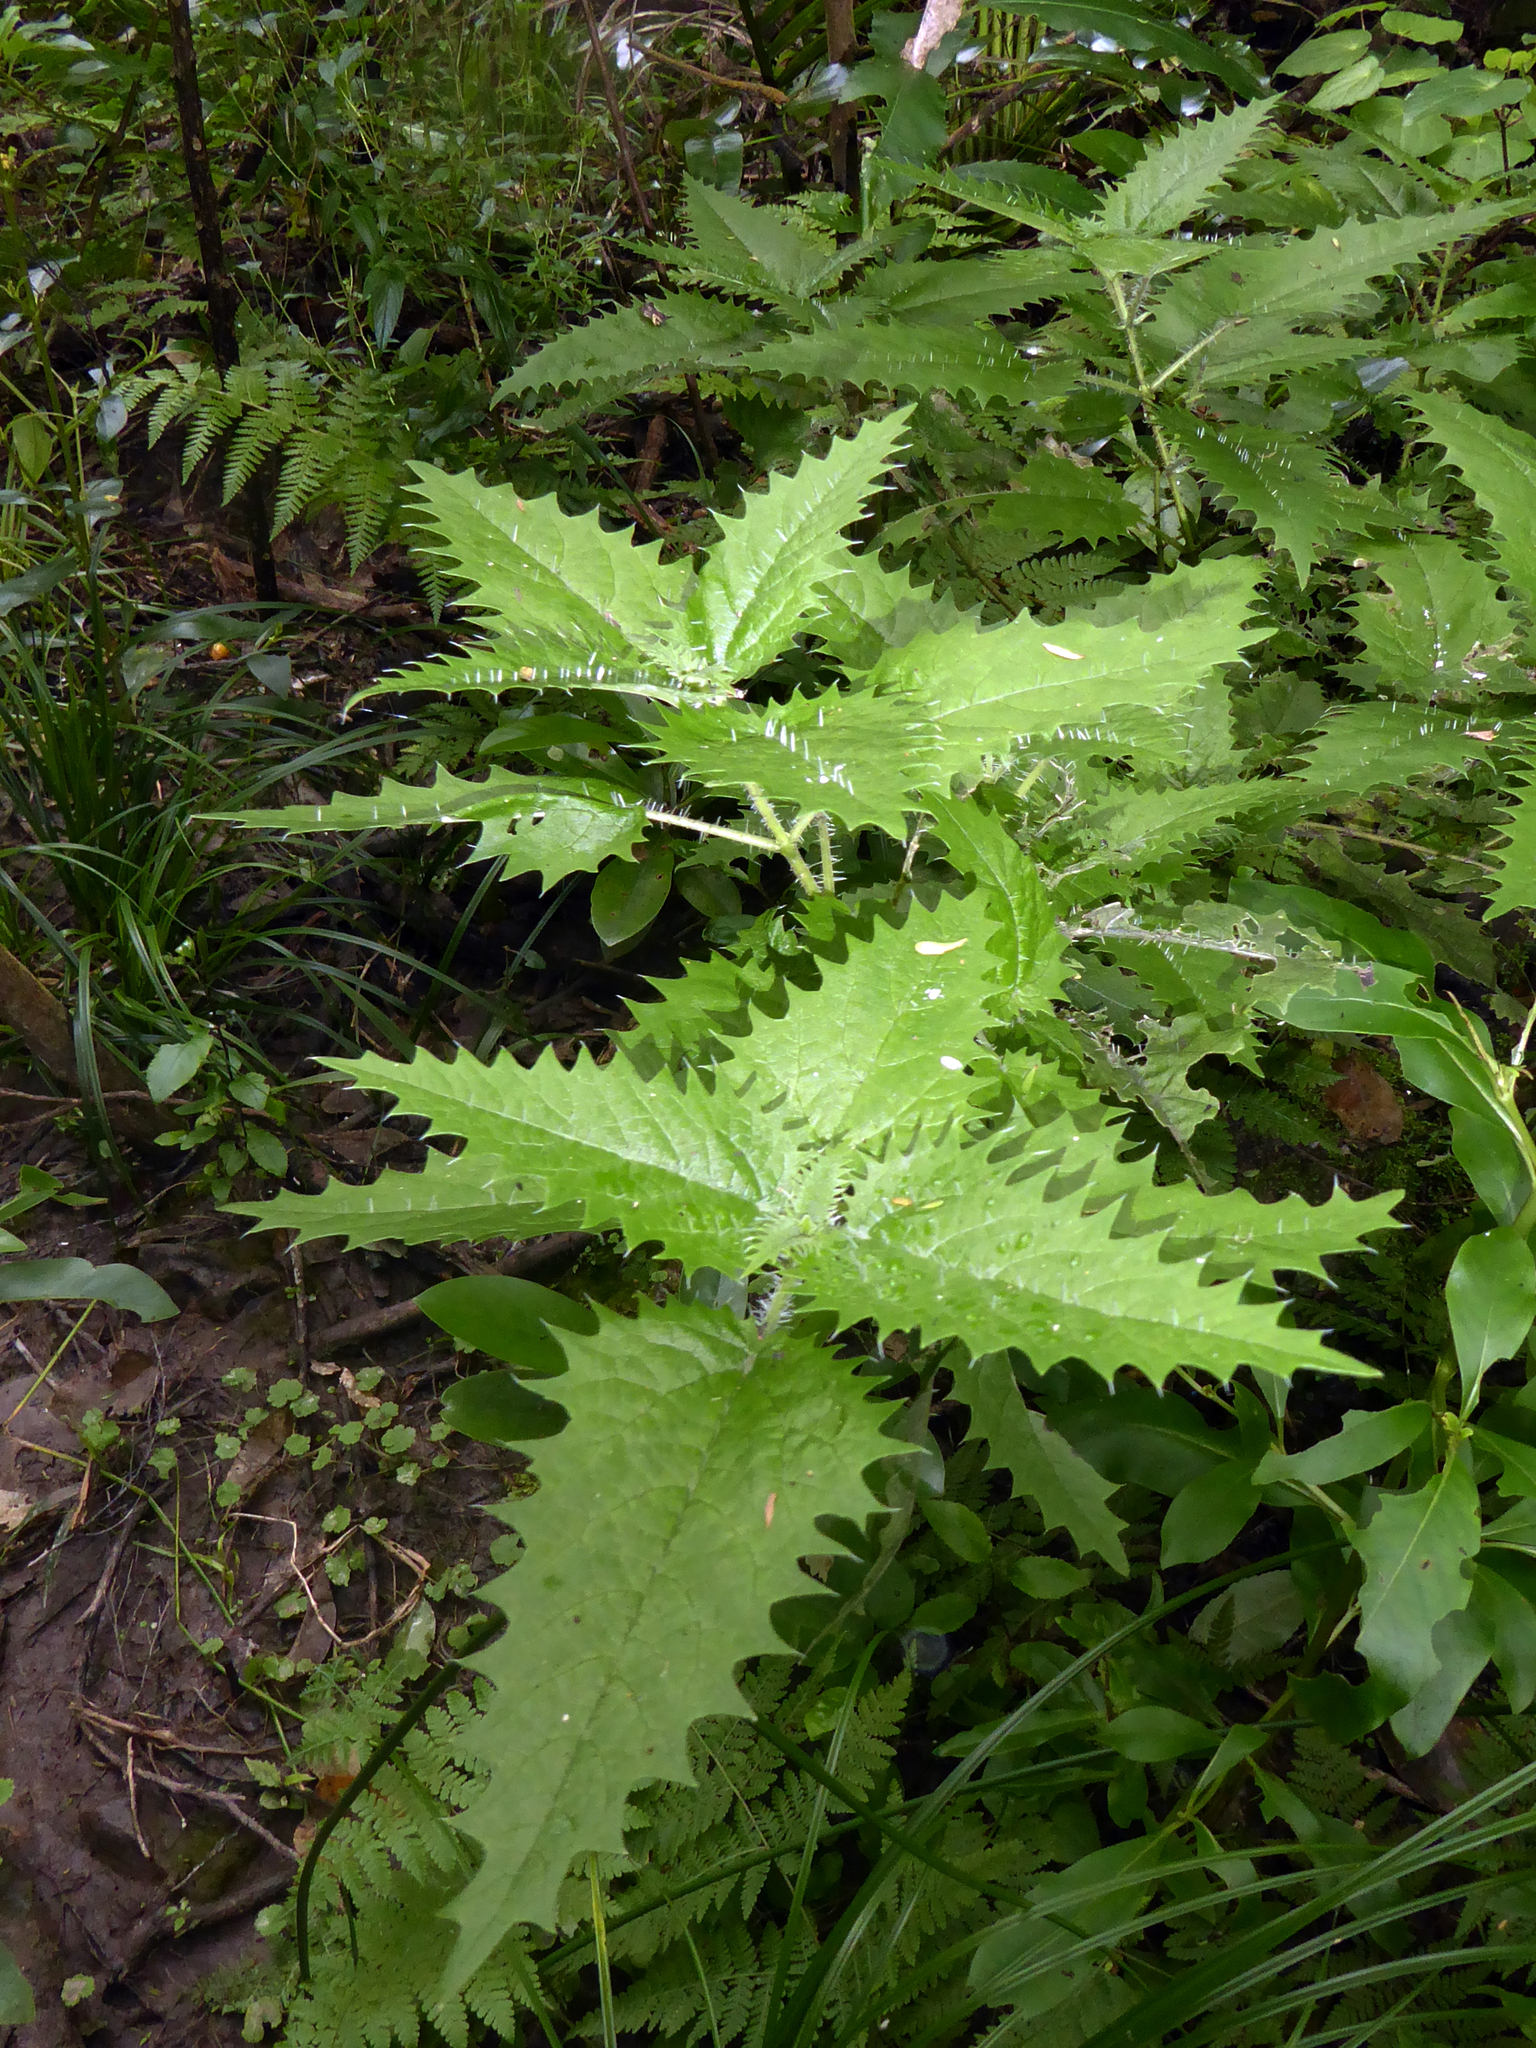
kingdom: Plantae
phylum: Tracheophyta
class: Magnoliopsida
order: Rosales
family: Urticaceae
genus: Urtica
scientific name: Urtica ferox
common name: Tree nettle
